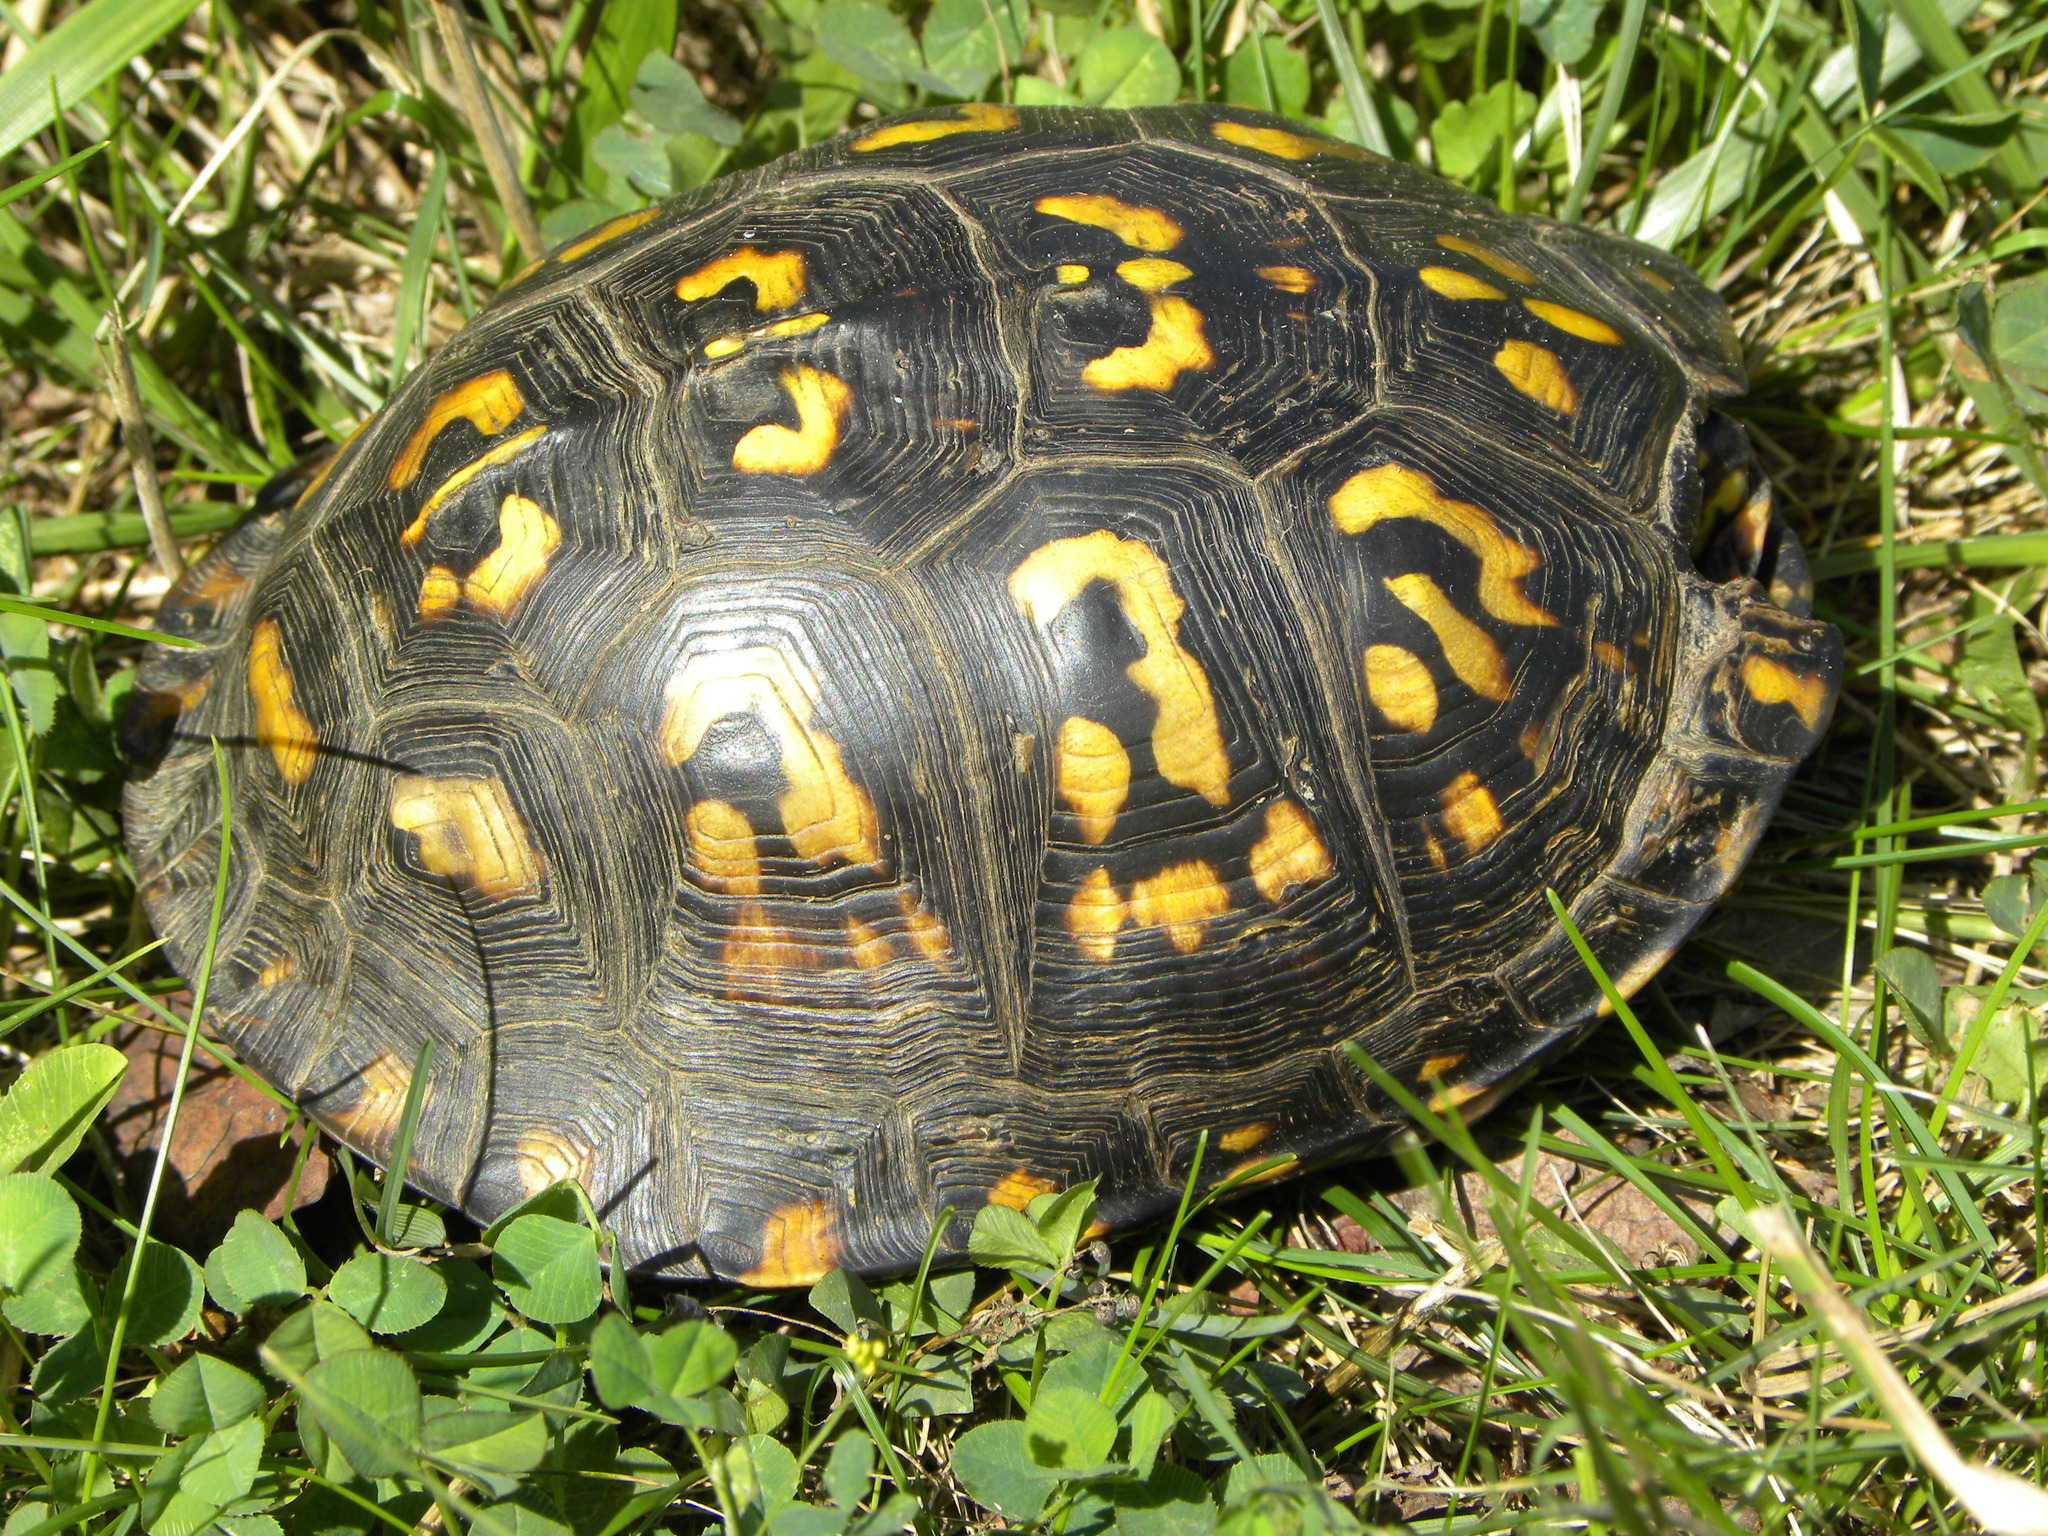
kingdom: Animalia
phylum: Chordata
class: Testudines
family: Emydidae
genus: Terrapene
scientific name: Terrapene carolina
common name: Common box turtle
